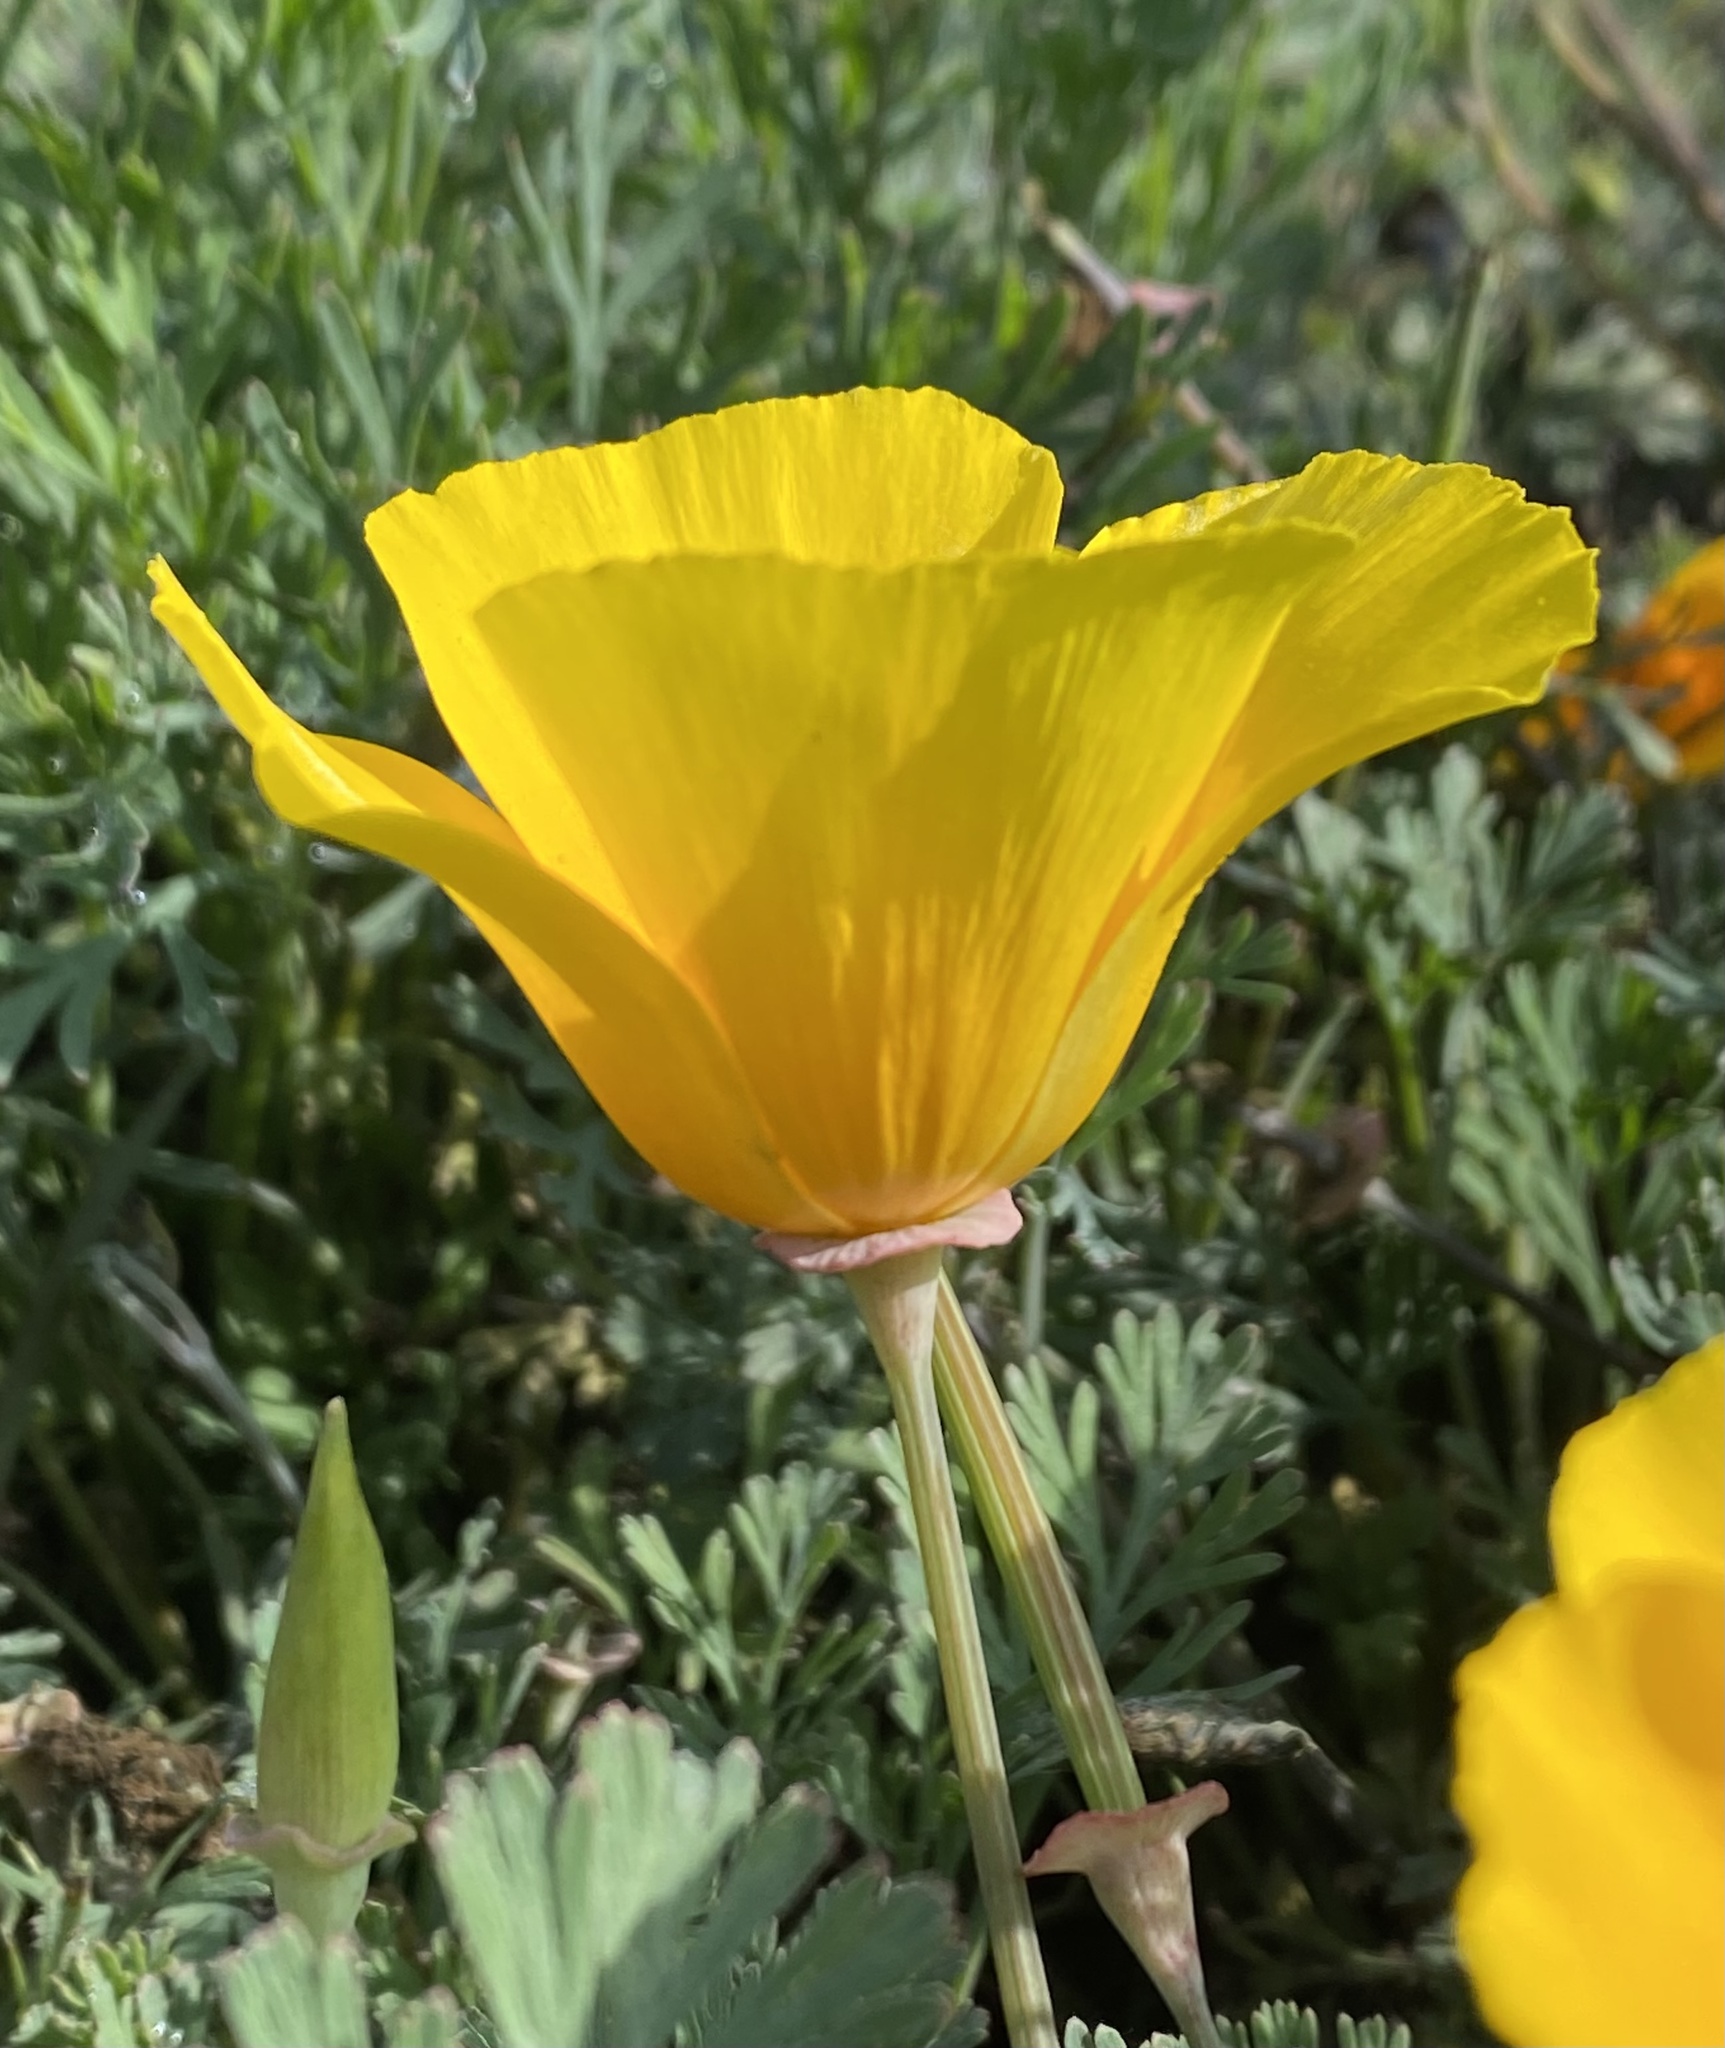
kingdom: Plantae
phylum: Tracheophyta
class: Magnoliopsida
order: Ranunculales
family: Papaveraceae
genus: Eschscholzia
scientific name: Eschscholzia californica
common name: California poppy
